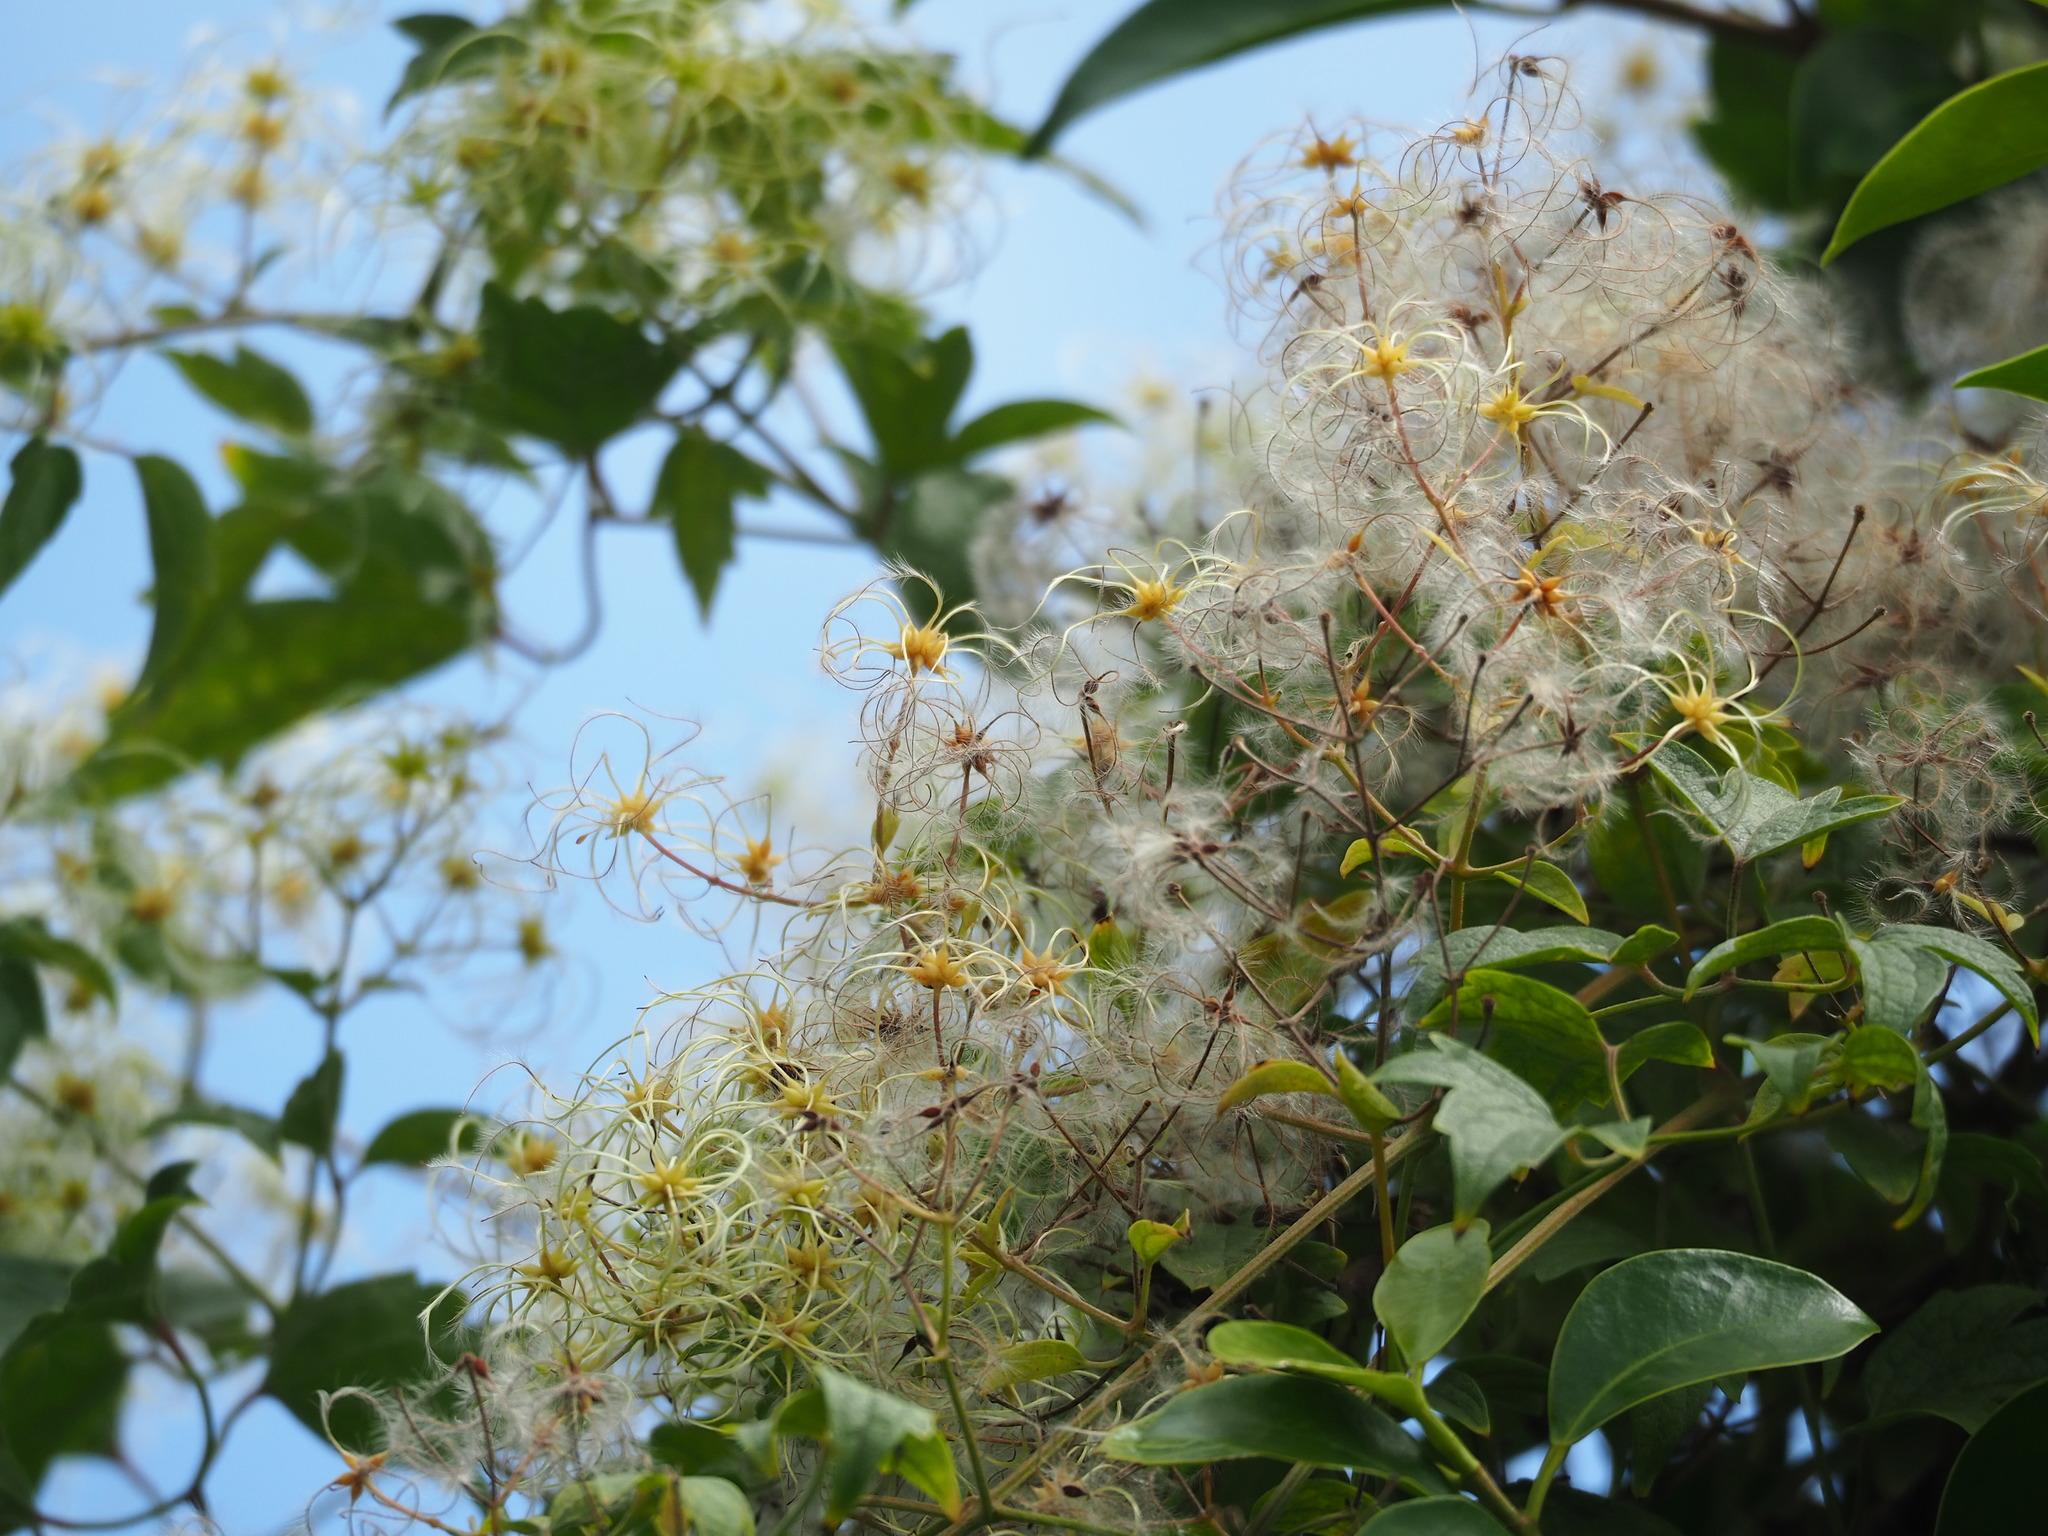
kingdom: Plantae
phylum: Tracheophyta
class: Magnoliopsida
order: Ranunculales
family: Ranunculaceae
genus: Clematis
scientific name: Clematis grata
